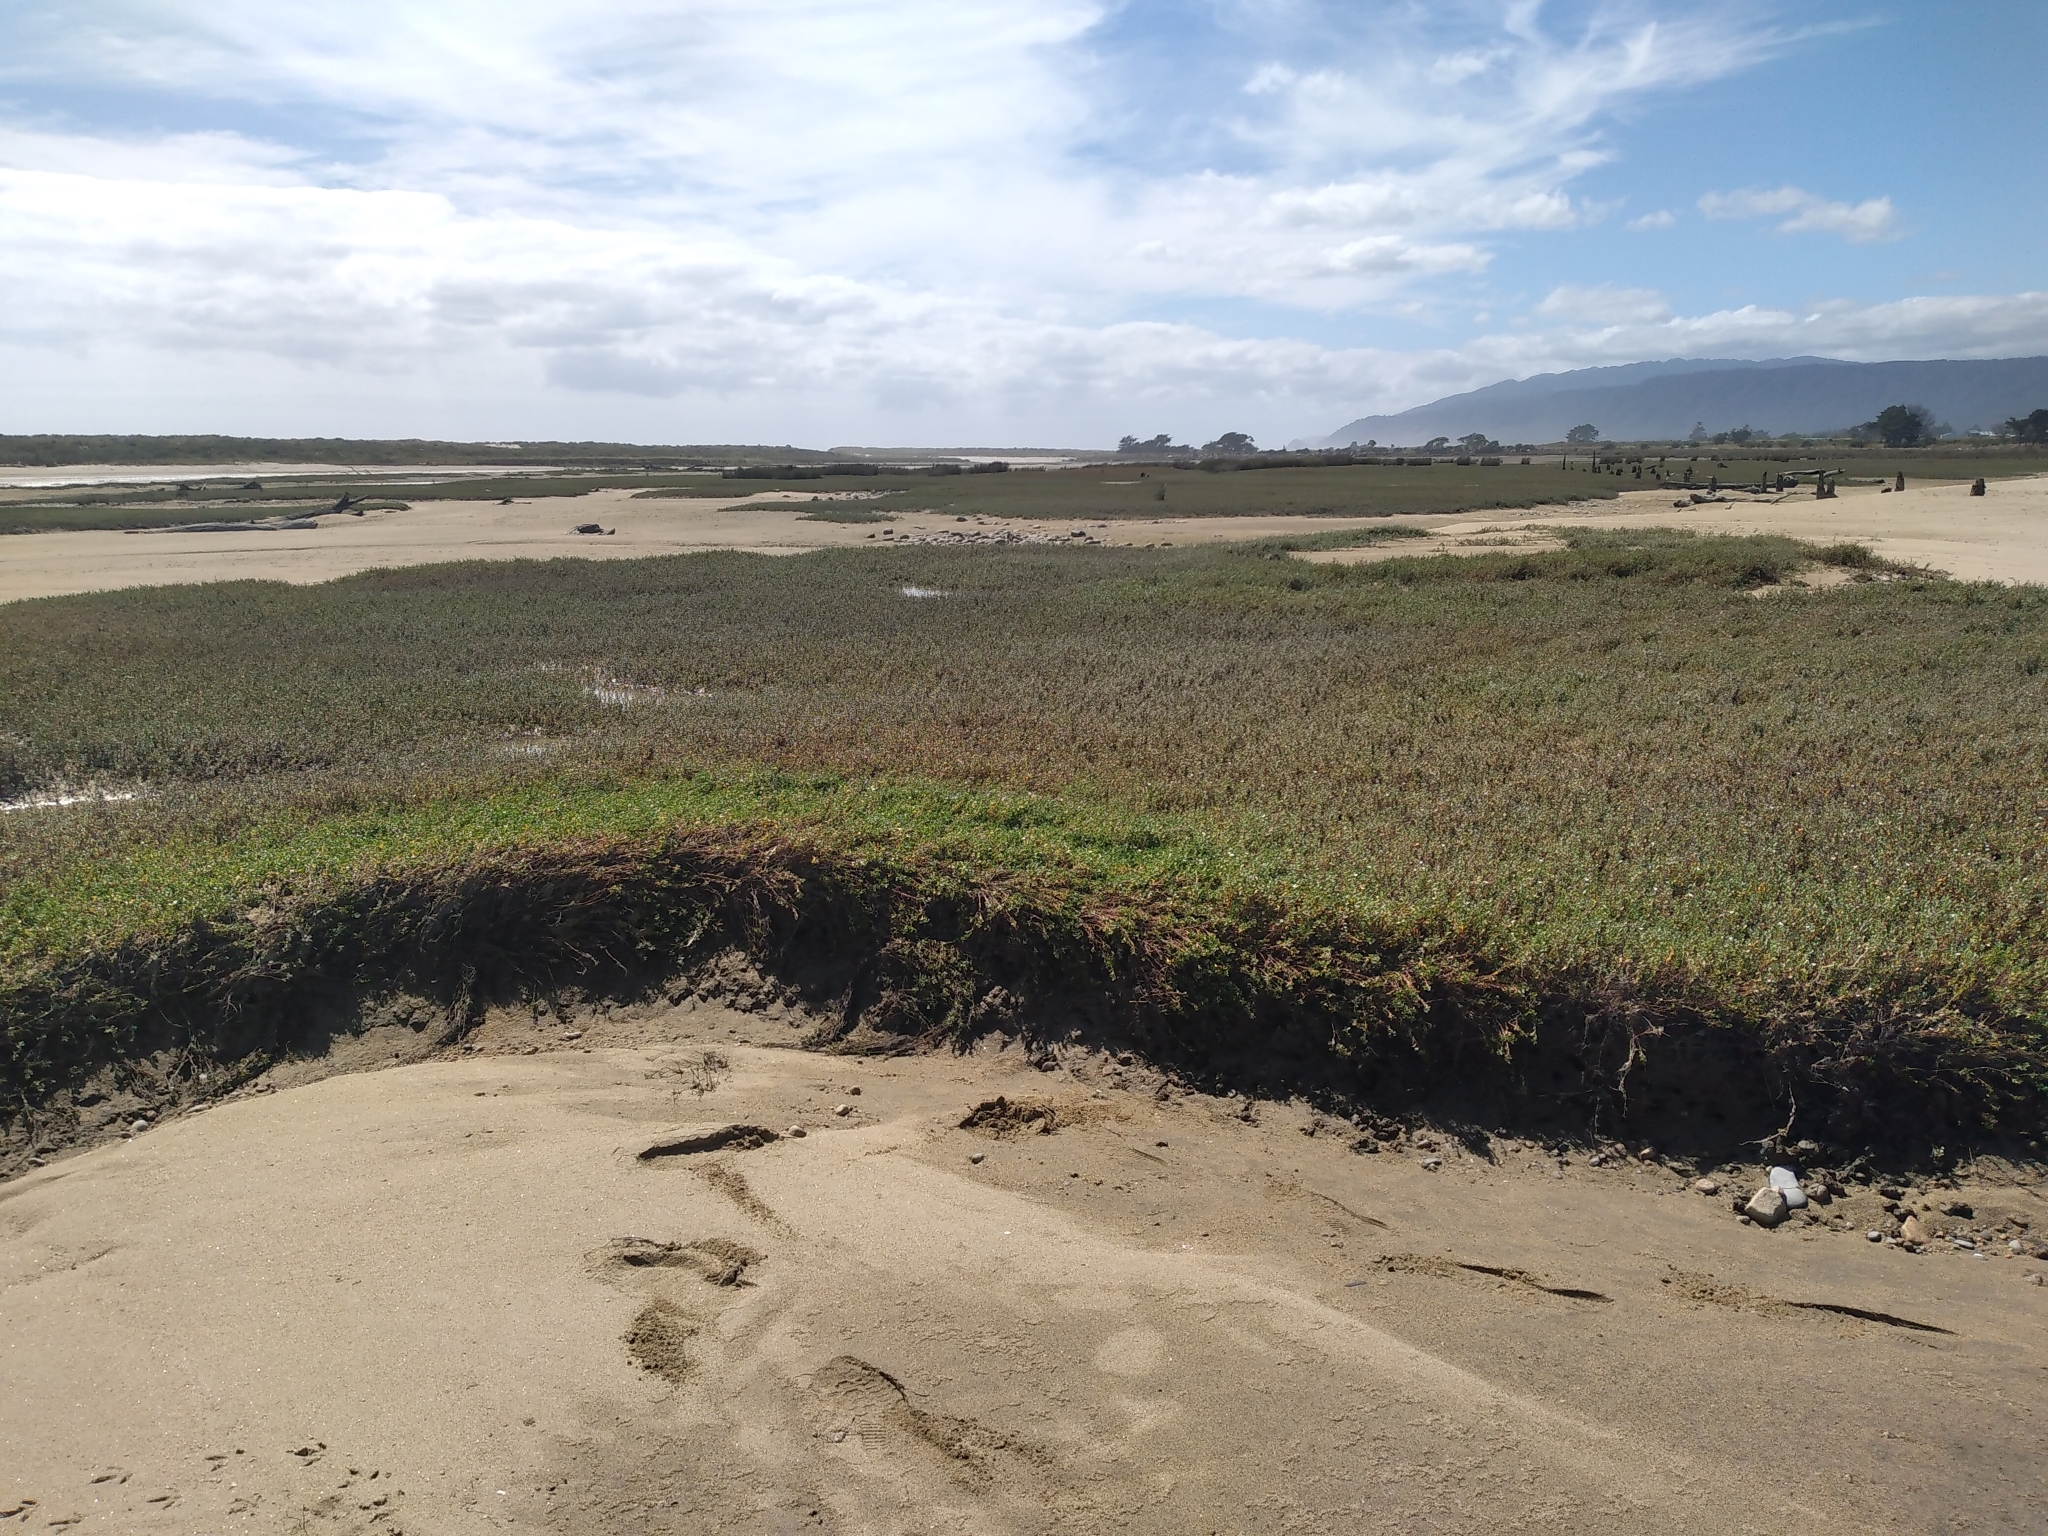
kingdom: Plantae
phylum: Tracheophyta
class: Magnoliopsida
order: Ericales
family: Primulaceae
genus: Samolus
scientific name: Samolus repens
